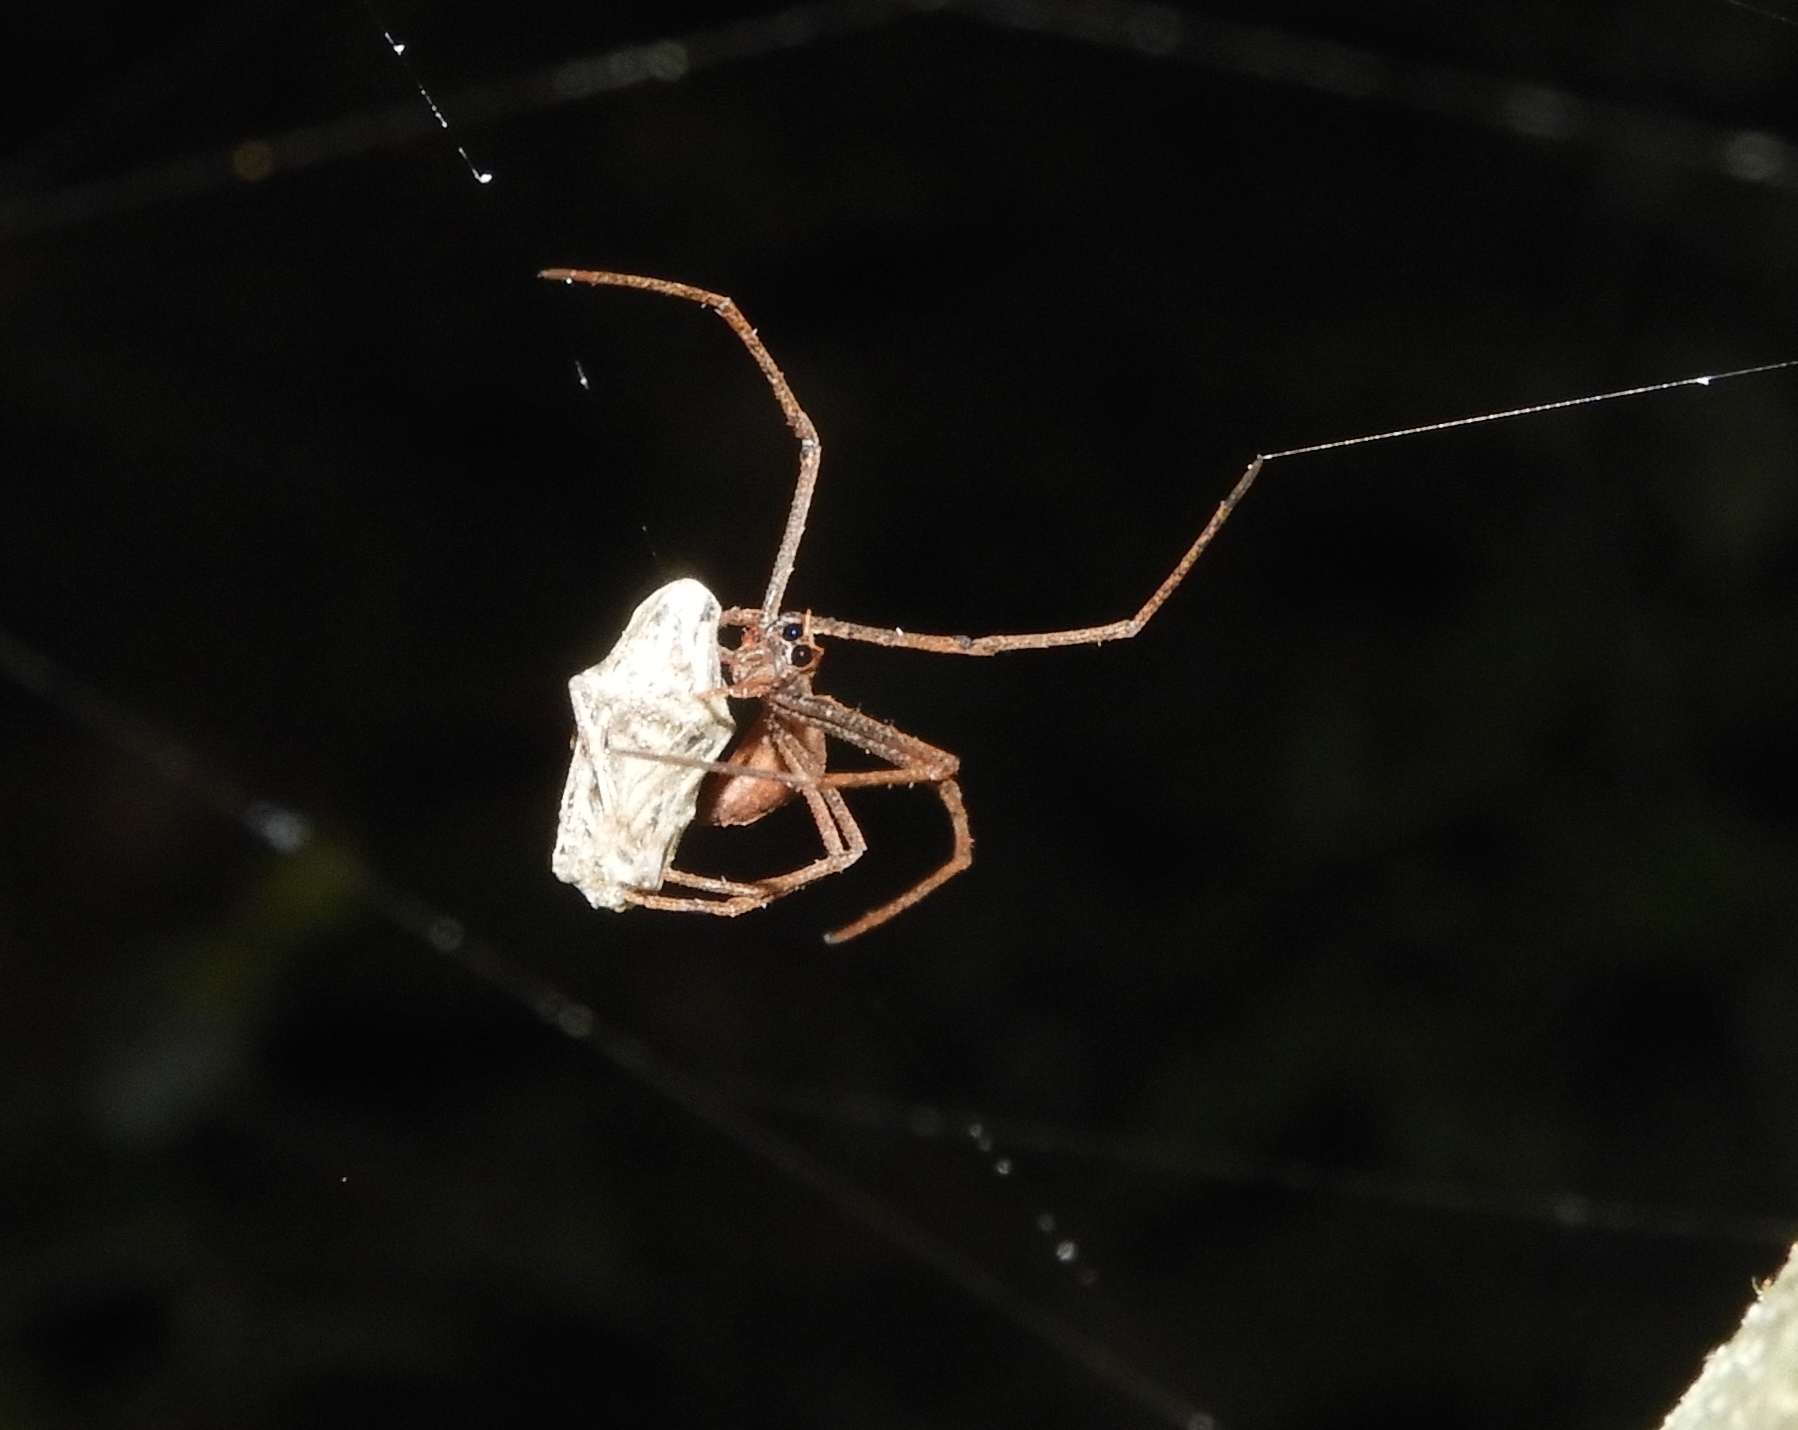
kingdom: Animalia
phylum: Arthropoda
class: Arachnida
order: Araneae
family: Deinopidae
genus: Deinopis
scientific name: Deinopis aurita
